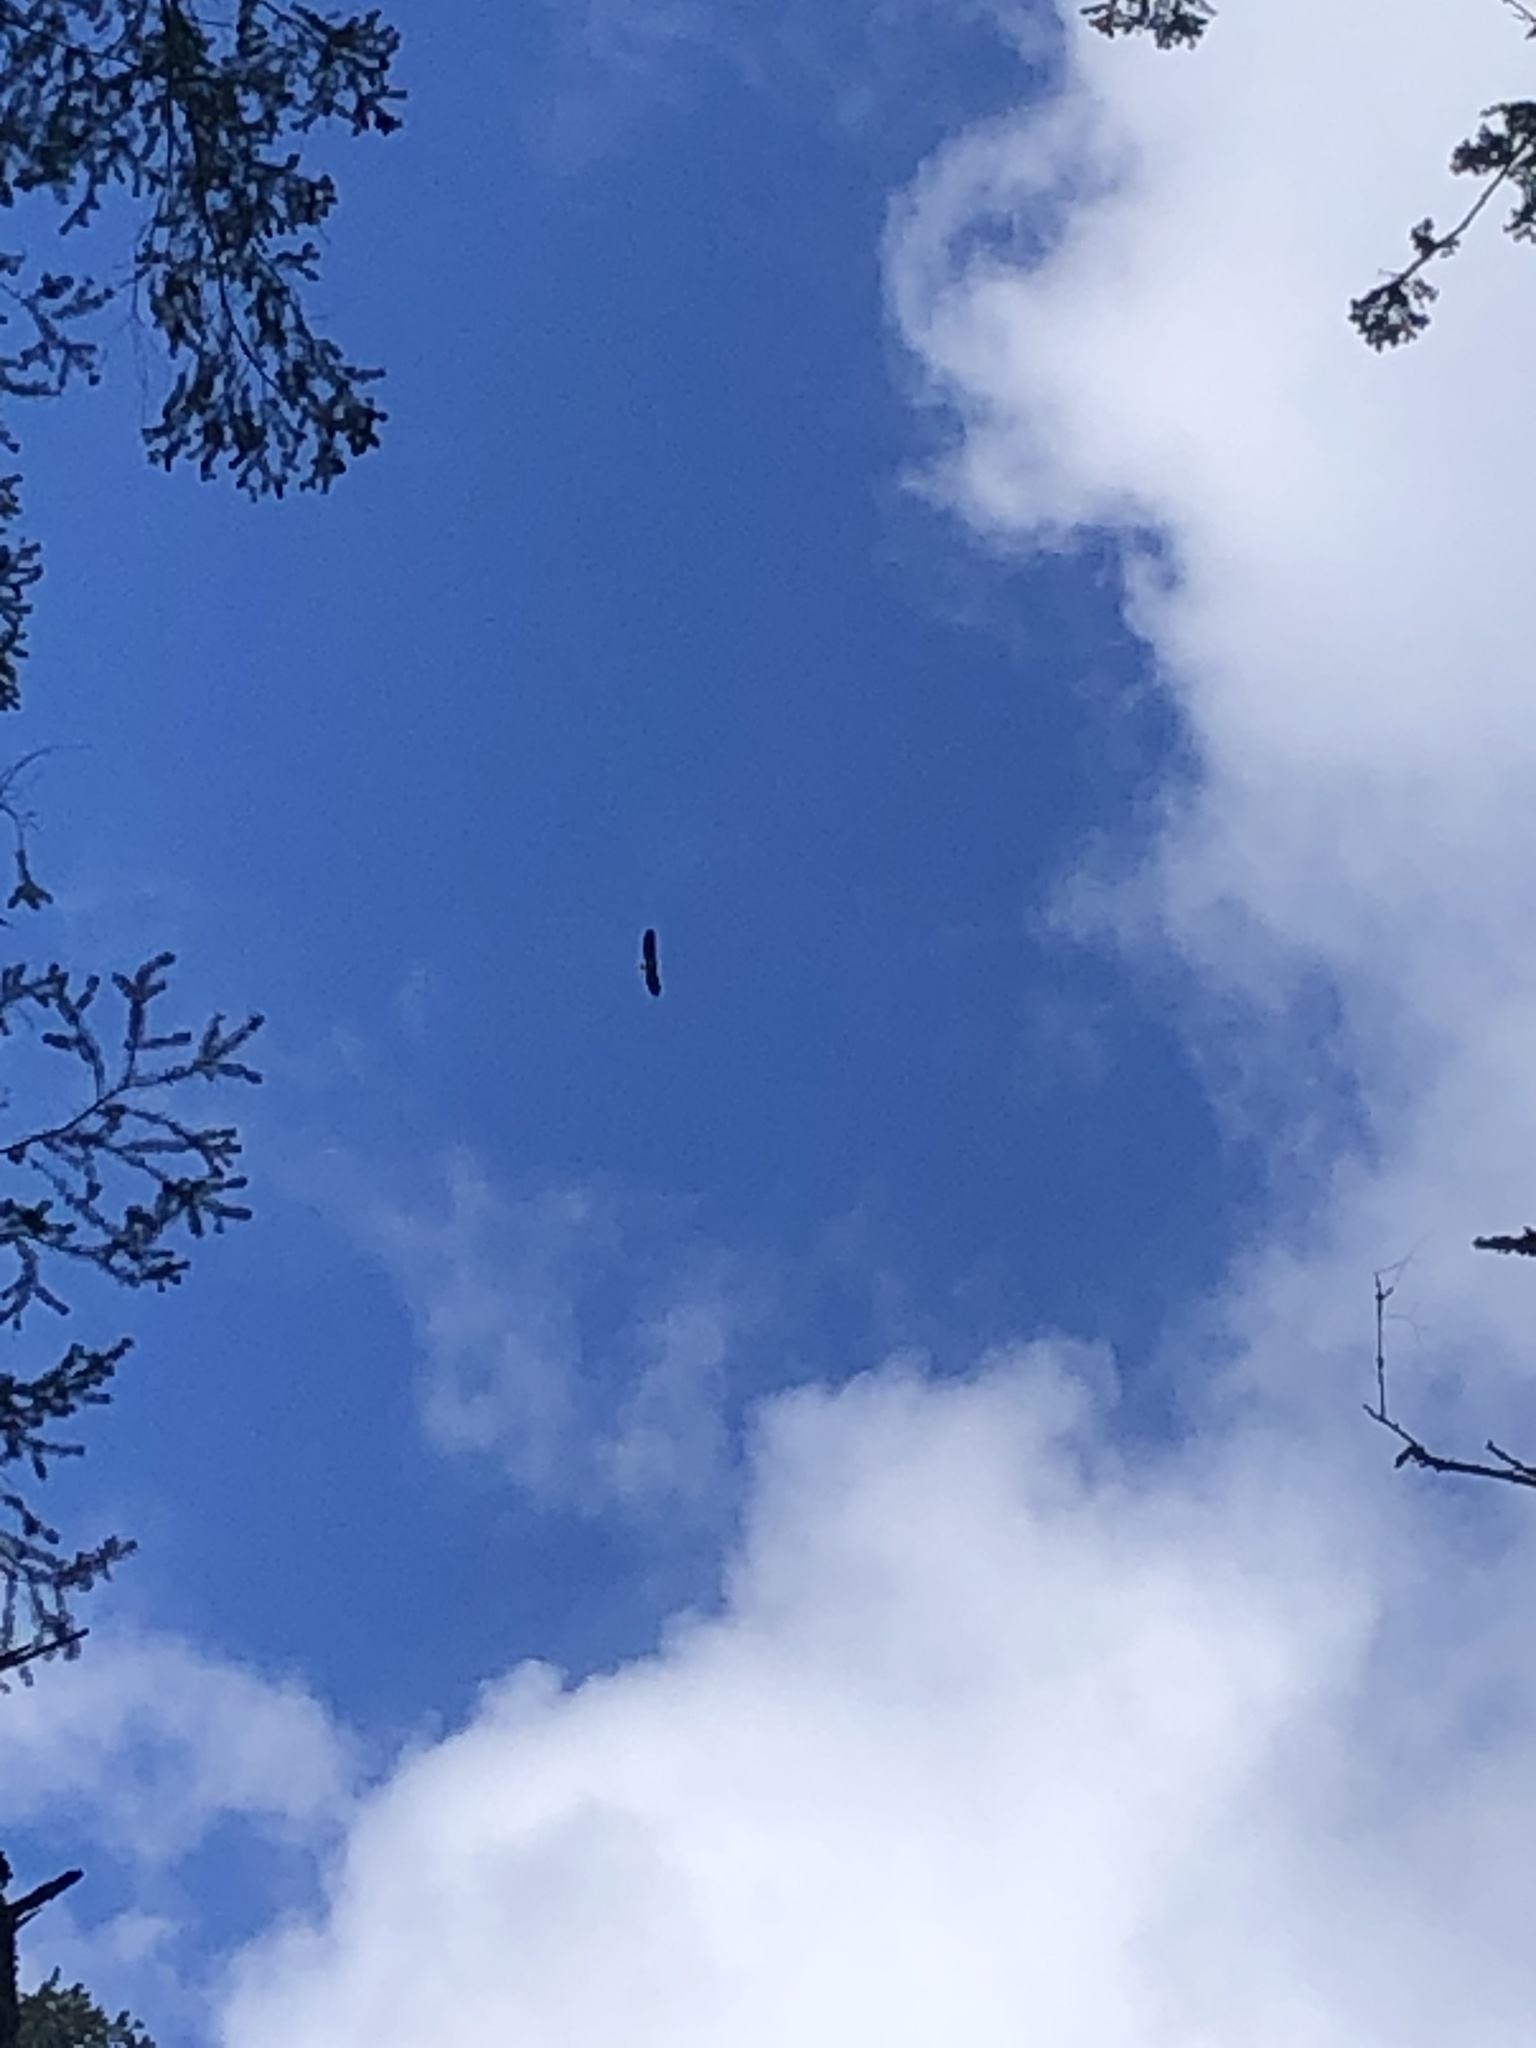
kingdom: Animalia
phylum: Chordata
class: Aves
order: Accipitriformes
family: Accipitridae
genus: Haliaeetus
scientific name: Haliaeetus leucocephalus
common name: Bald eagle
